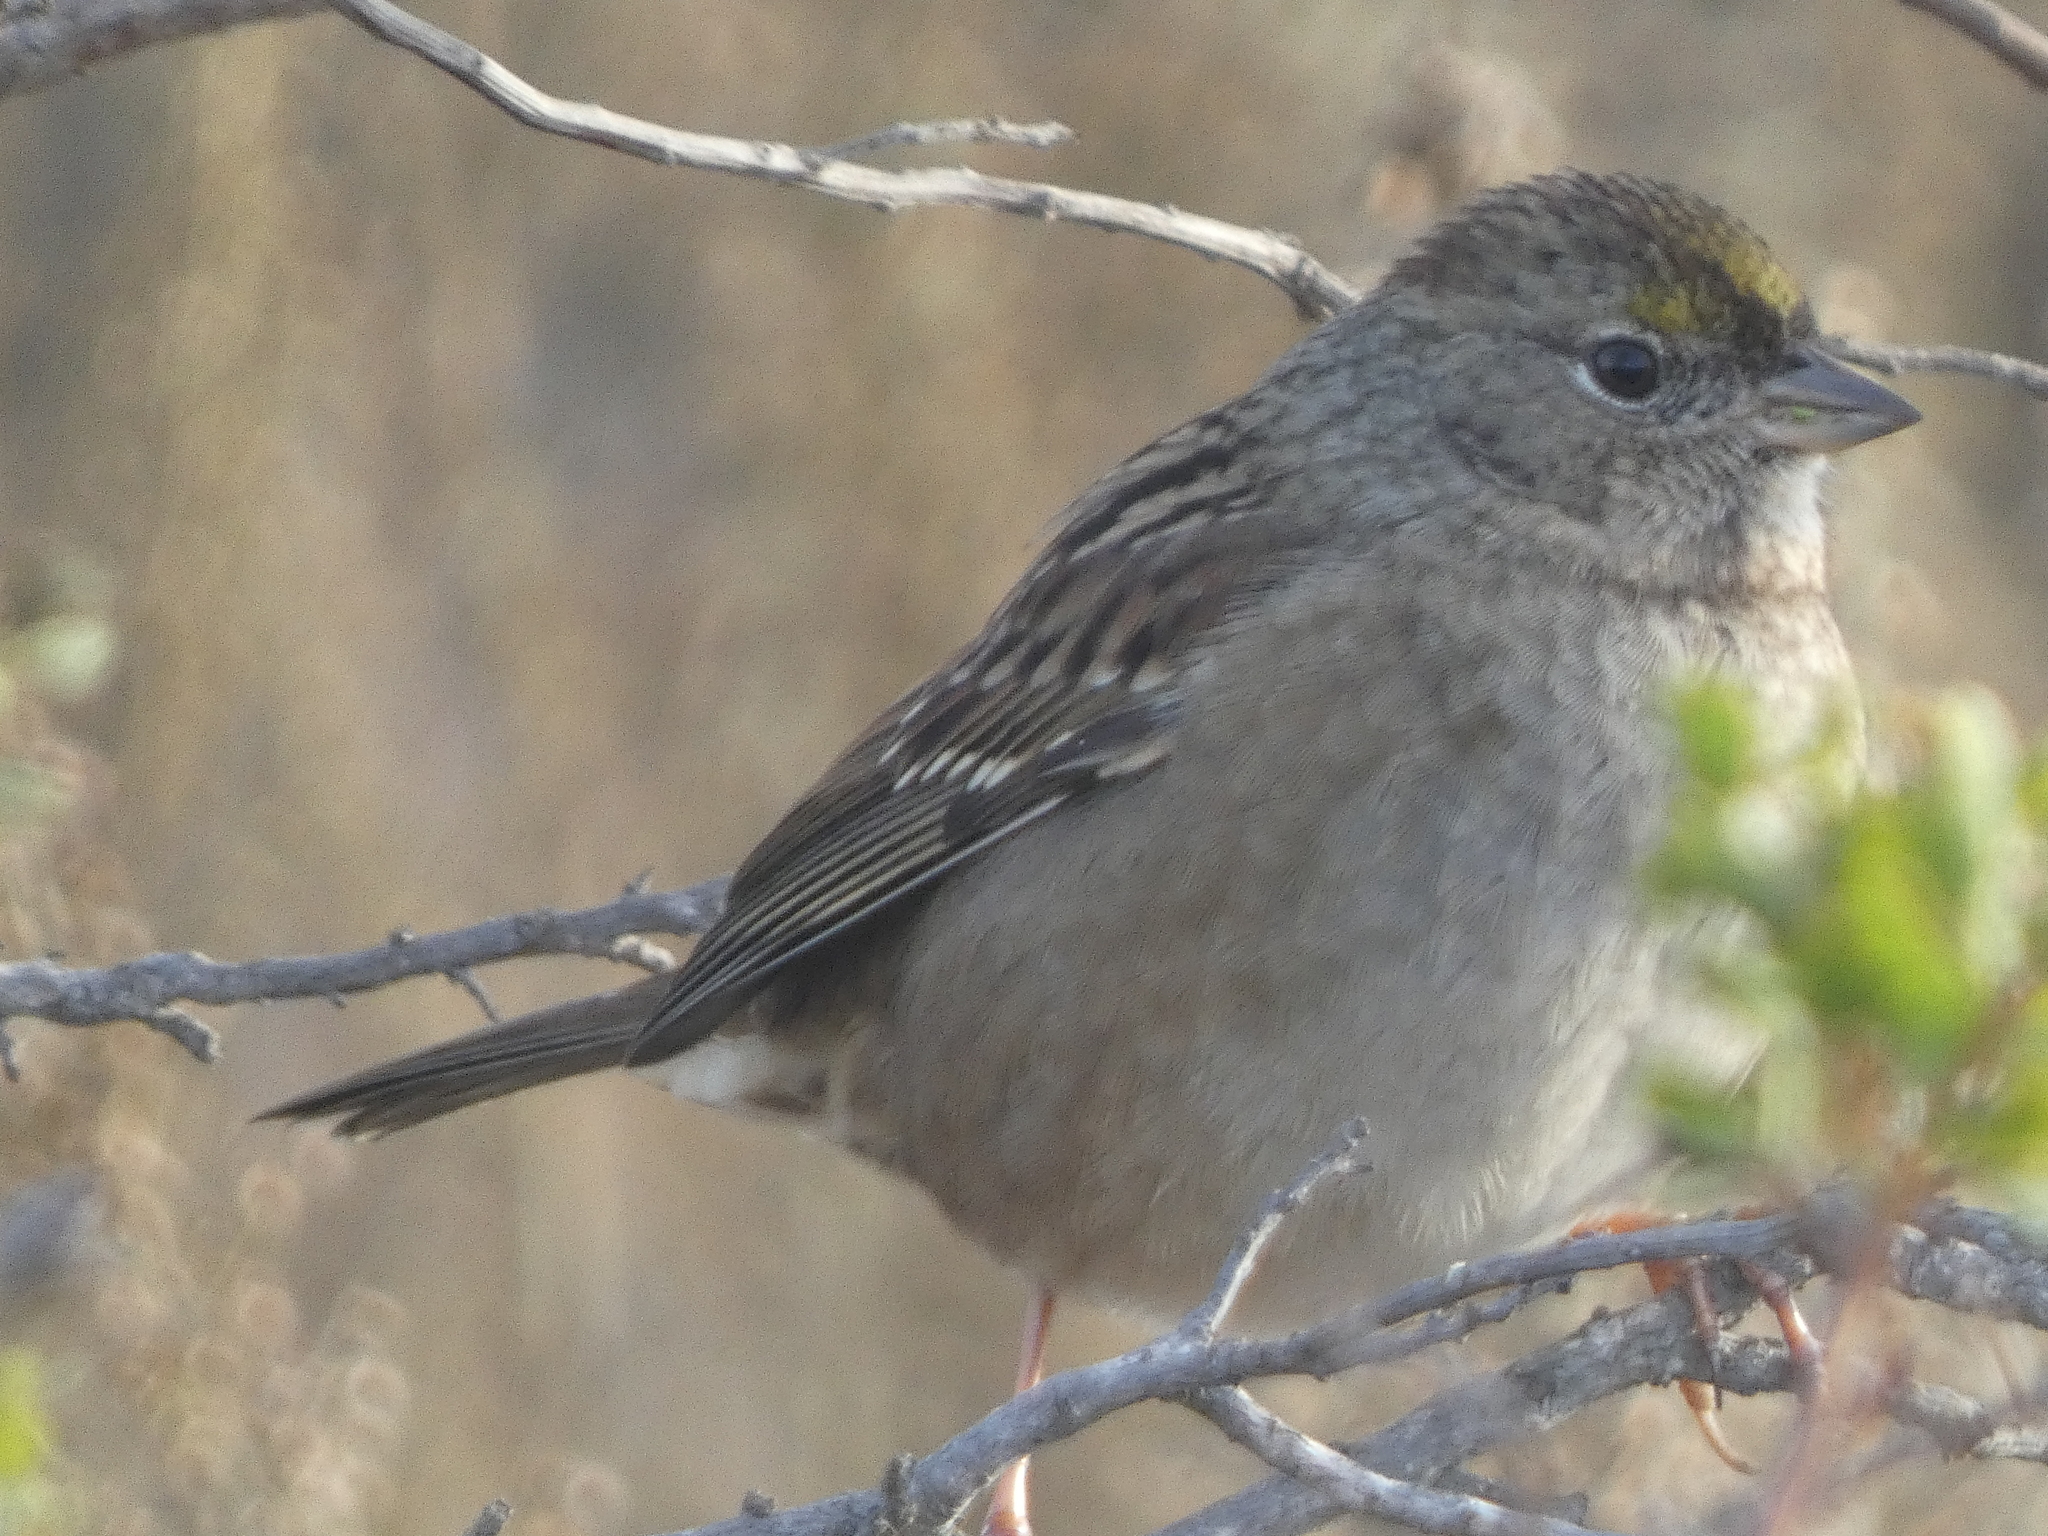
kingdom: Animalia
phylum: Chordata
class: Aves
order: Passeriformes
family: Passerellidae
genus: Zonotrichia
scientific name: Zonotrichia atricapilla
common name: Golden-crowned sparrow
